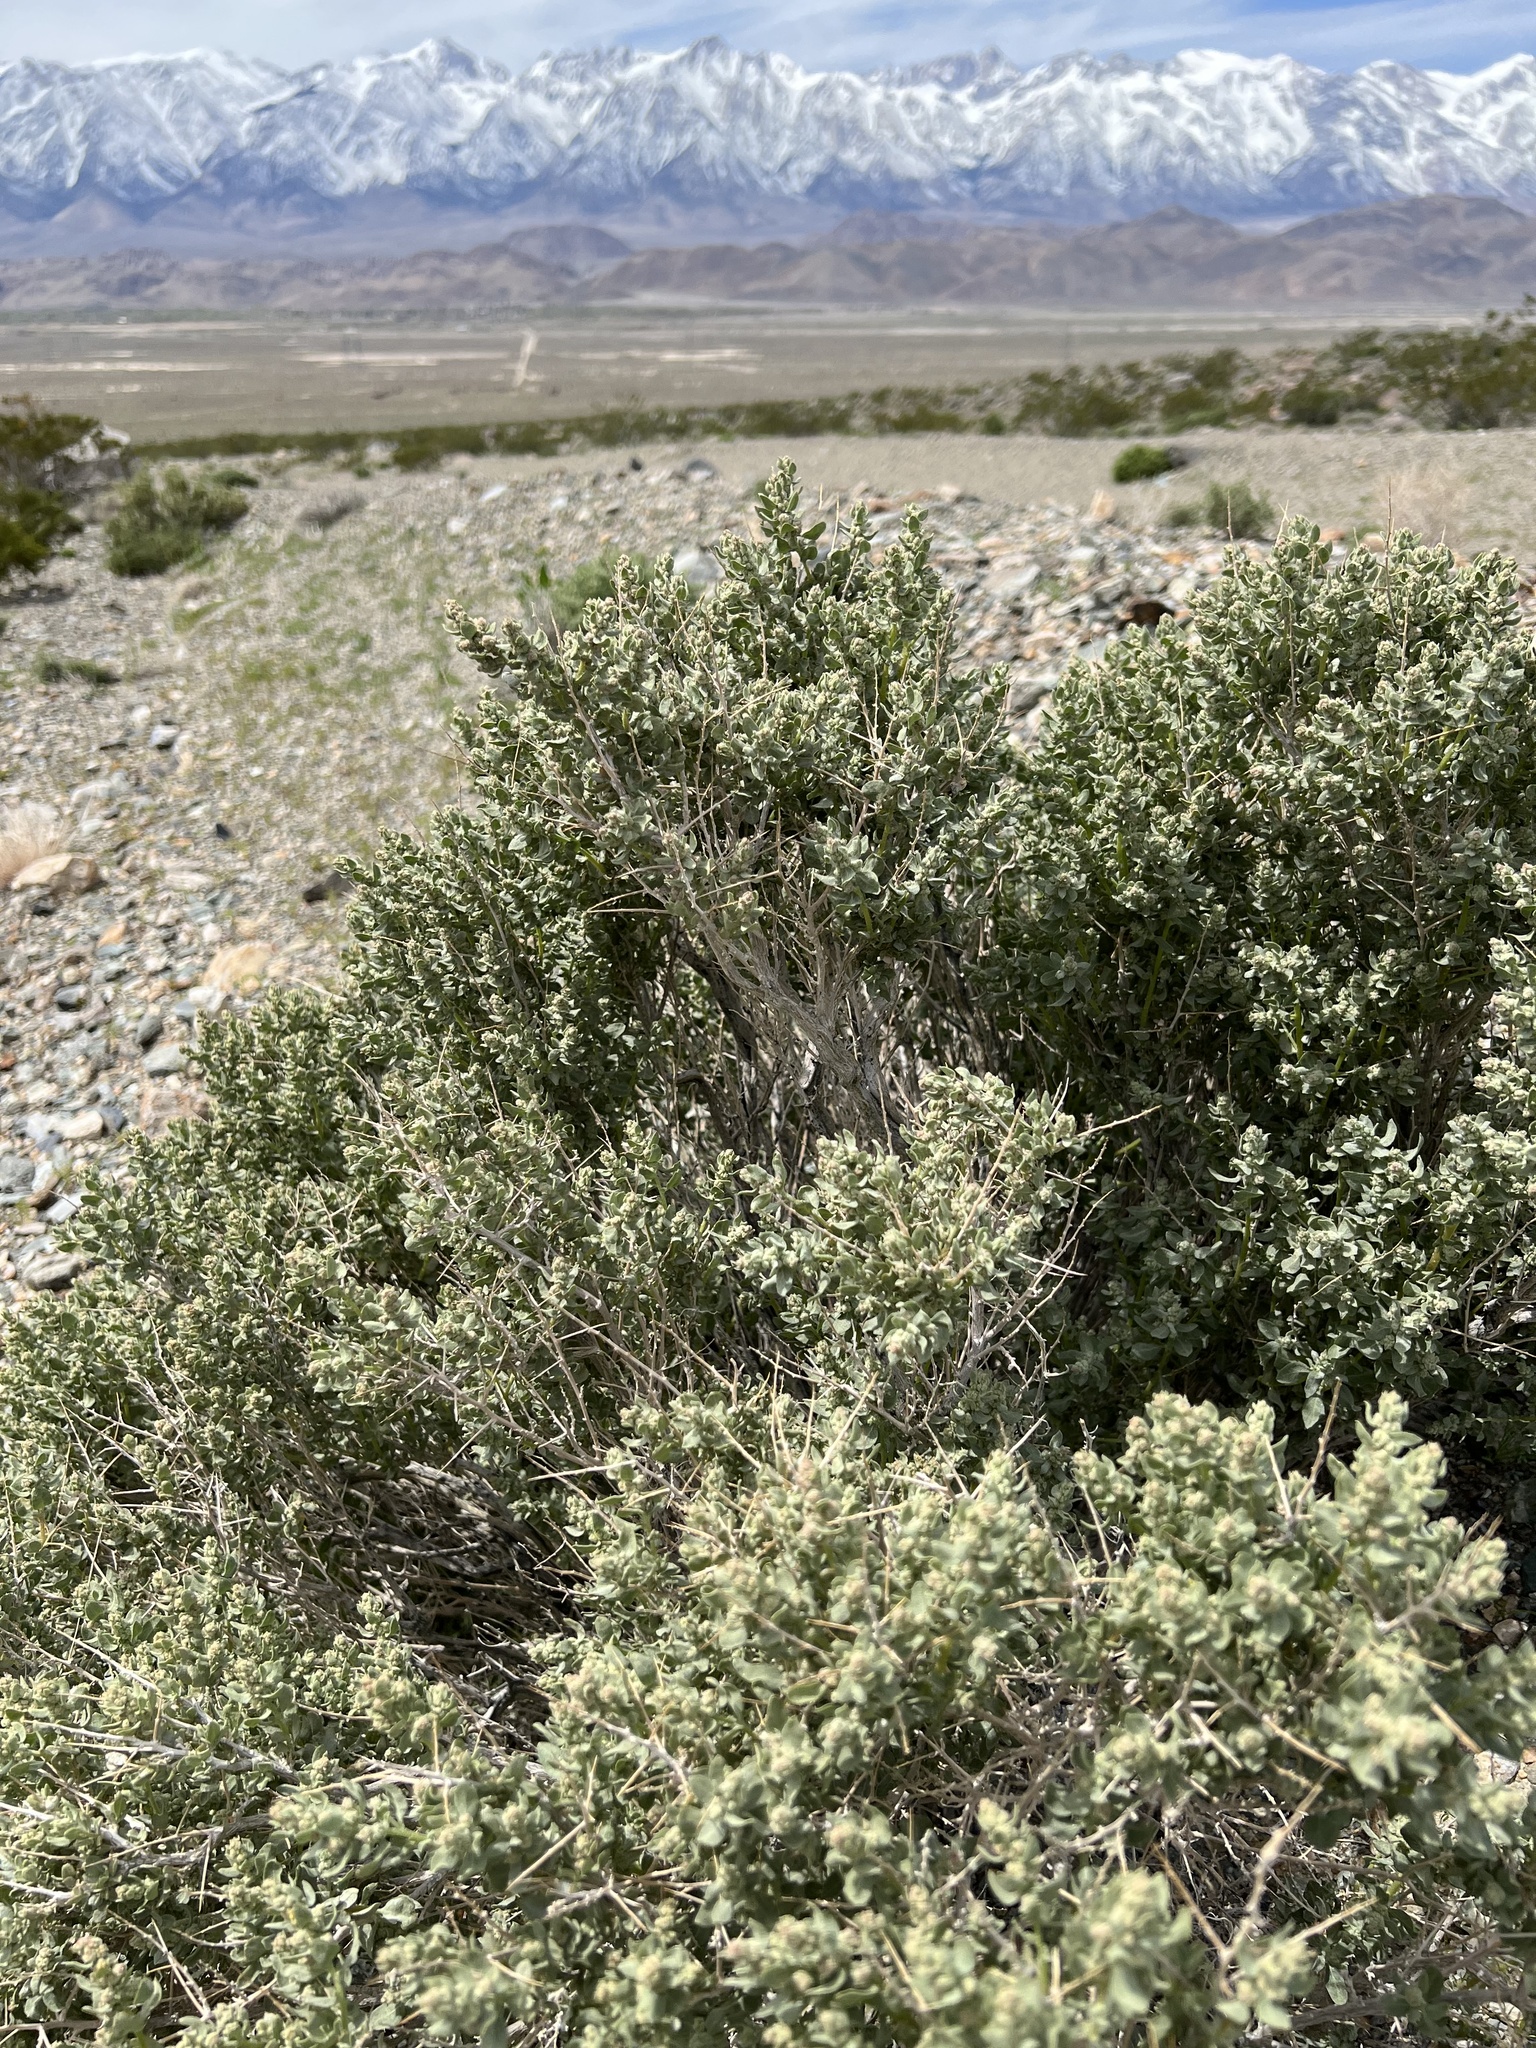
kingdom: Plantae
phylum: Tracheophyta
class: Magnoliopsida
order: Caryophyllales
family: Amaranthaceae
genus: Atriplex
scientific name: Atriplex confertifolia
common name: Shadscale
